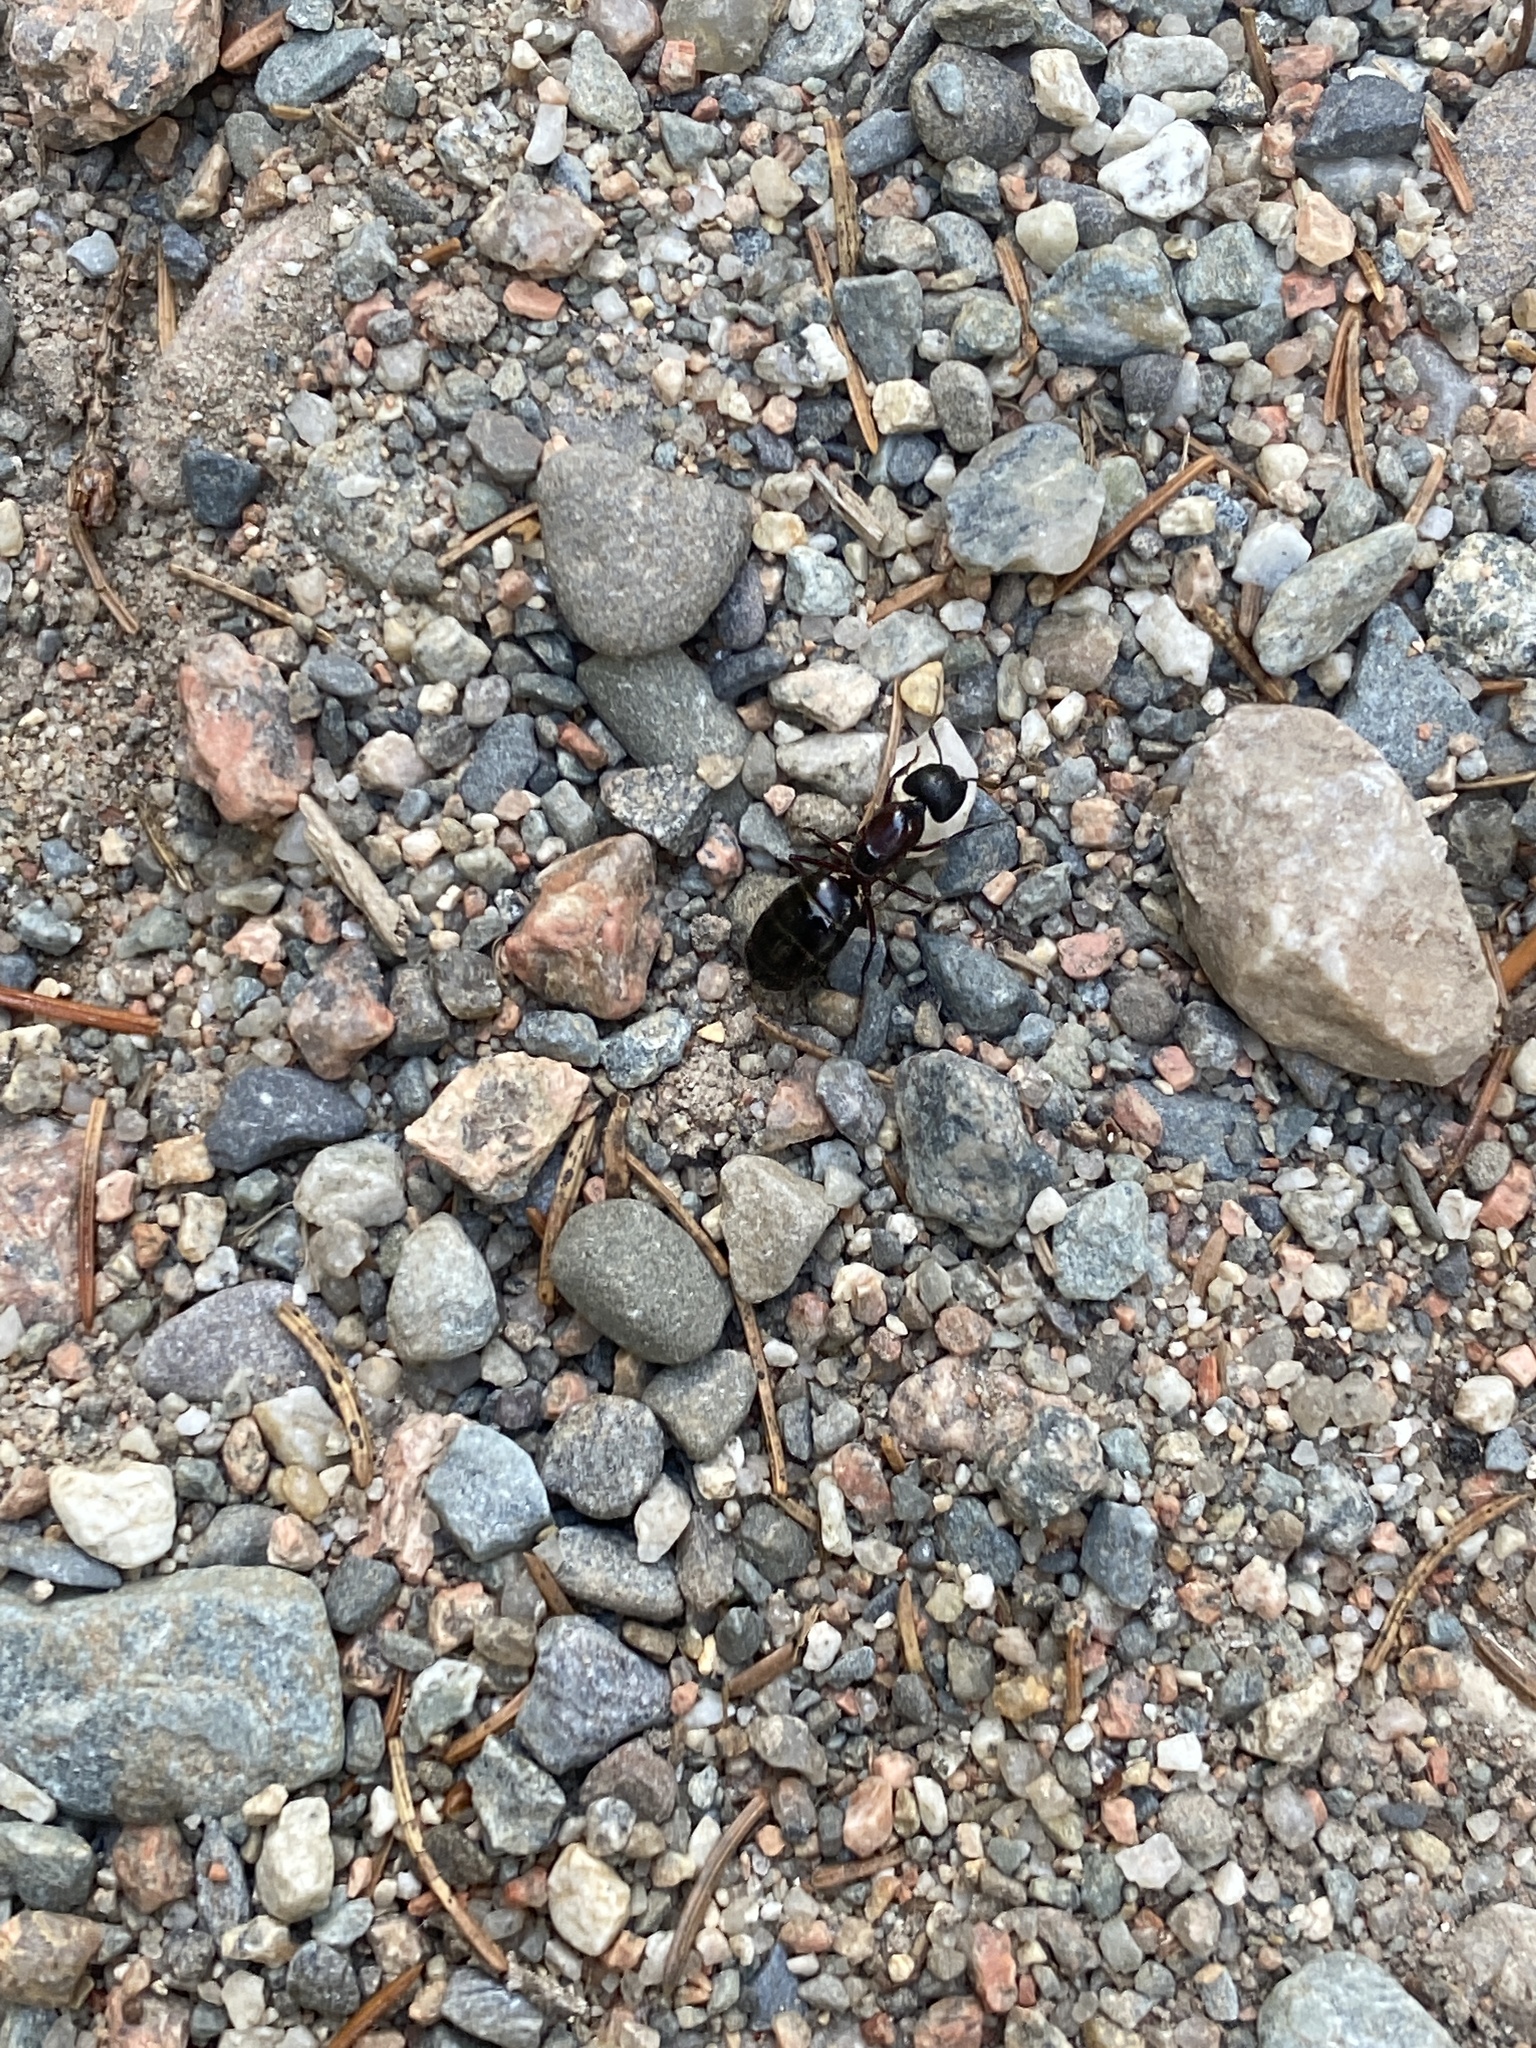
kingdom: Animalia
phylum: Arthropoda
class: Insecta
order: Hymenoptera
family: Formicidae
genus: Camponotus
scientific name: Camponotus novaeboracensis
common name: New york carpenter ant
